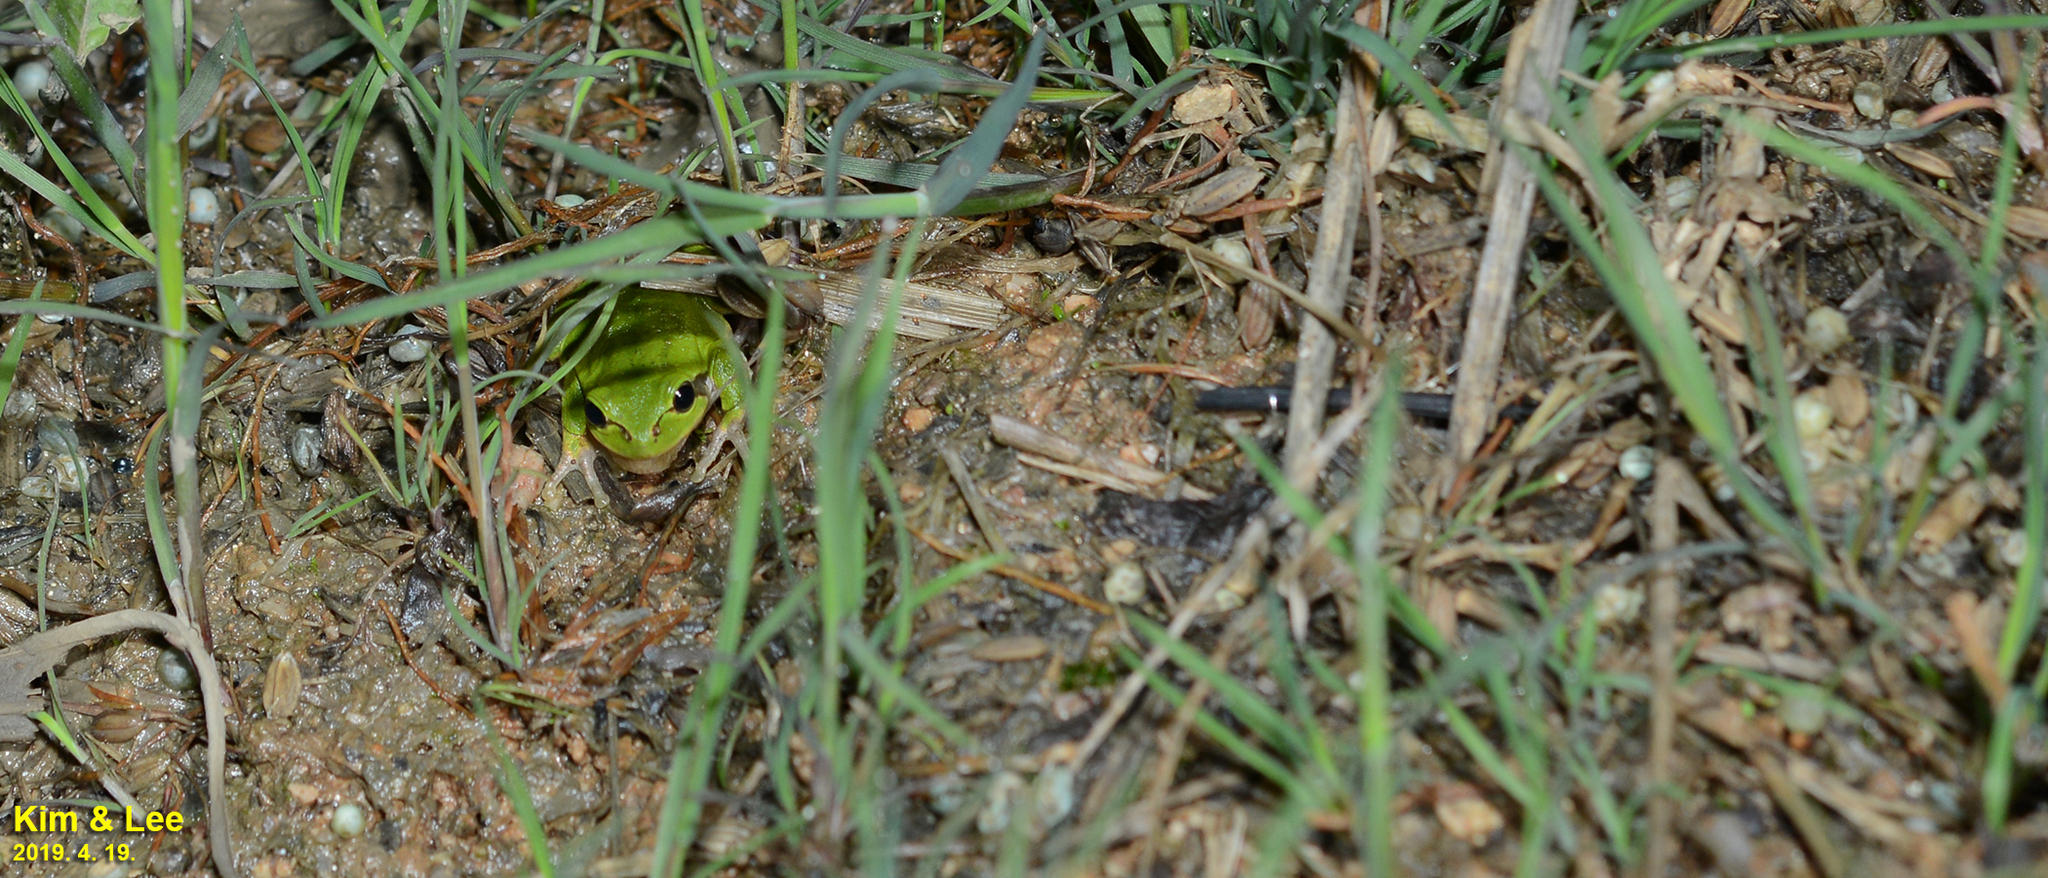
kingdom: Animalia
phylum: Chordata
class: Amphibia
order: Anura
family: Hylidae
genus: Dryophytes
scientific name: Dryophytes japonicus
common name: Japanese treefrog
